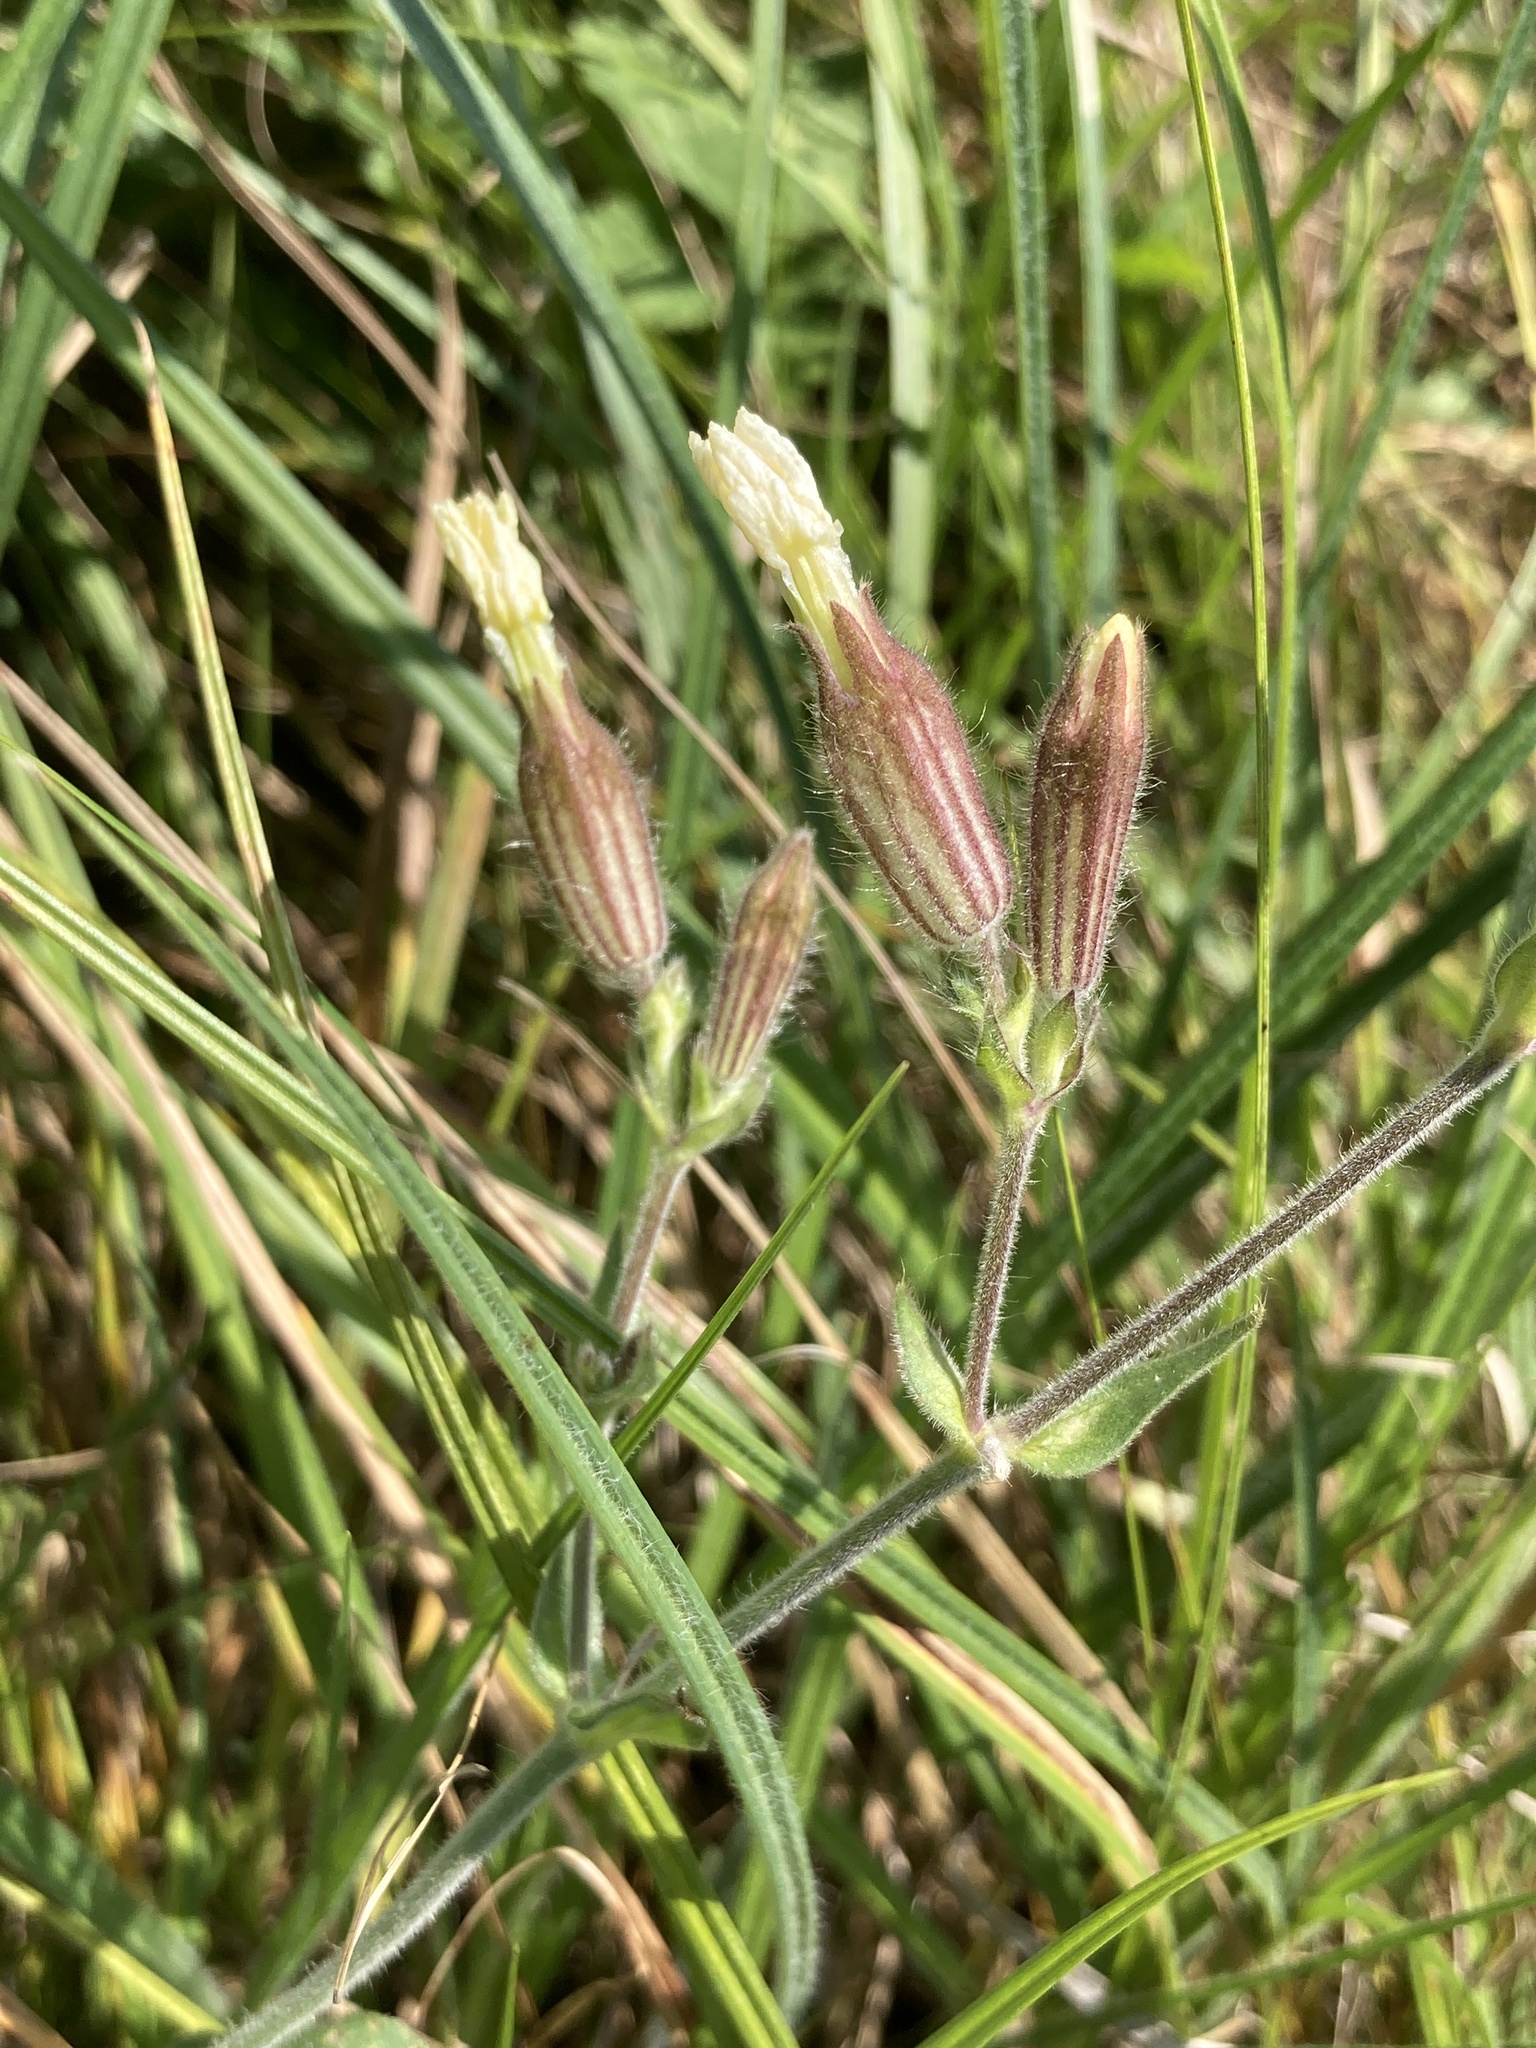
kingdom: Plantae
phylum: Tracheophyta
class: Magnoliopsida
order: Caryophyllales
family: Caryophyllaceae
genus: Silene
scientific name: Silene latifolia
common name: White campion
